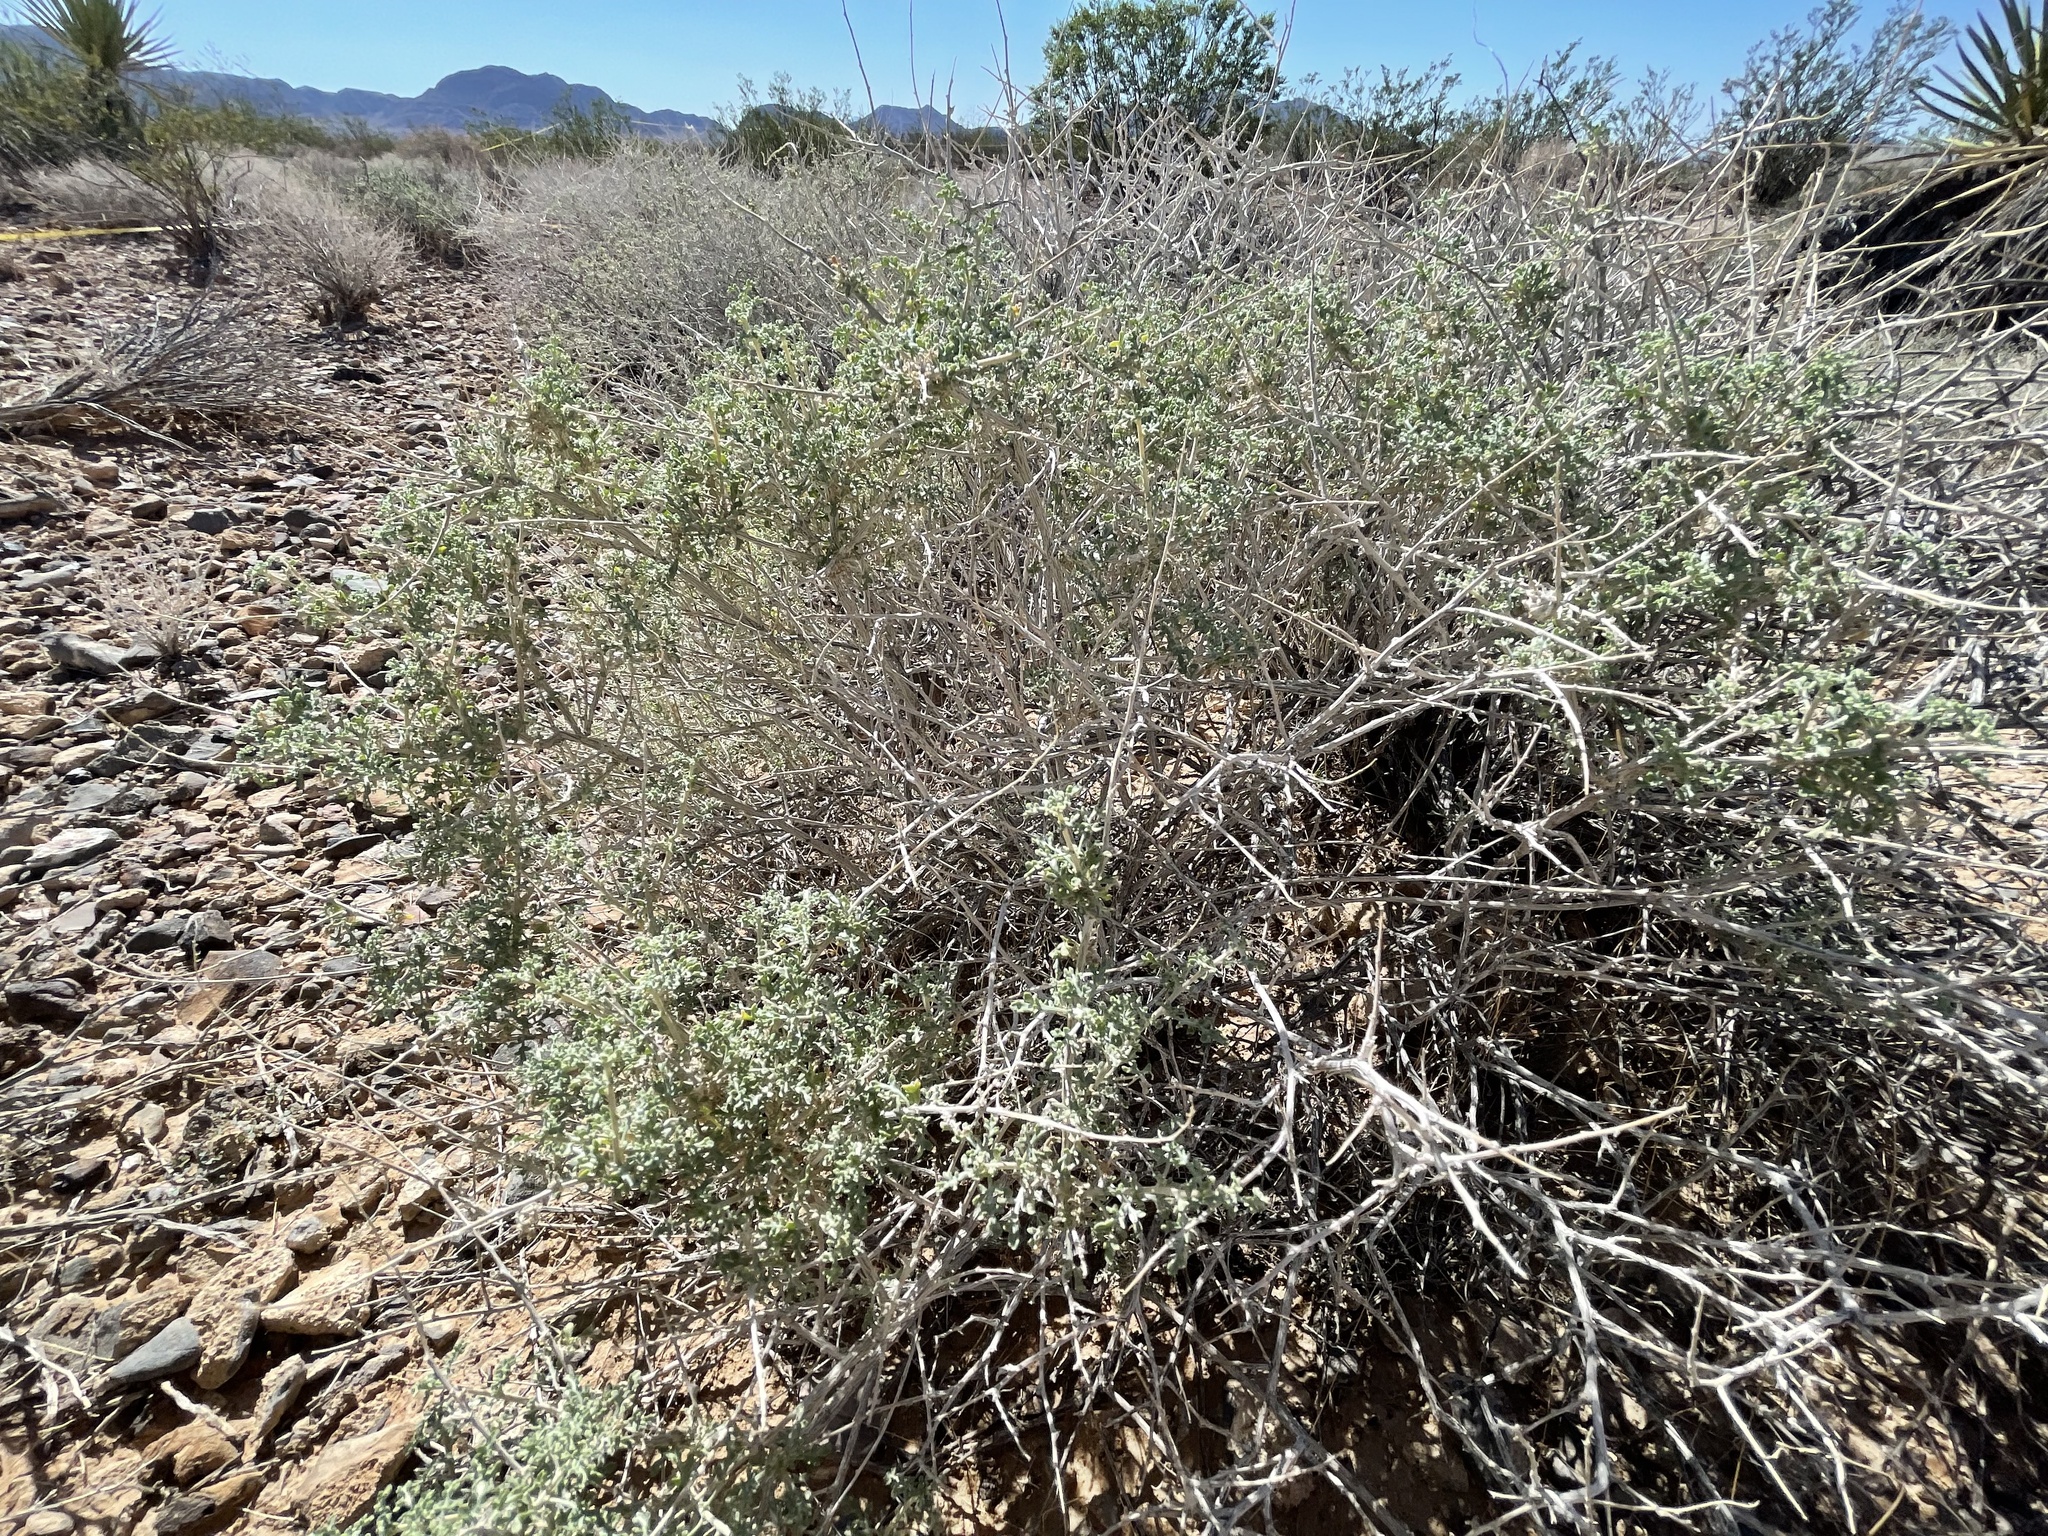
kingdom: Plantae
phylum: Tracheophyta
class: Magnoliopsida
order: Asterales
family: Asteraceae
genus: Ambrosia
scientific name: Ambrosia dumosa
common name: Bur-sage
